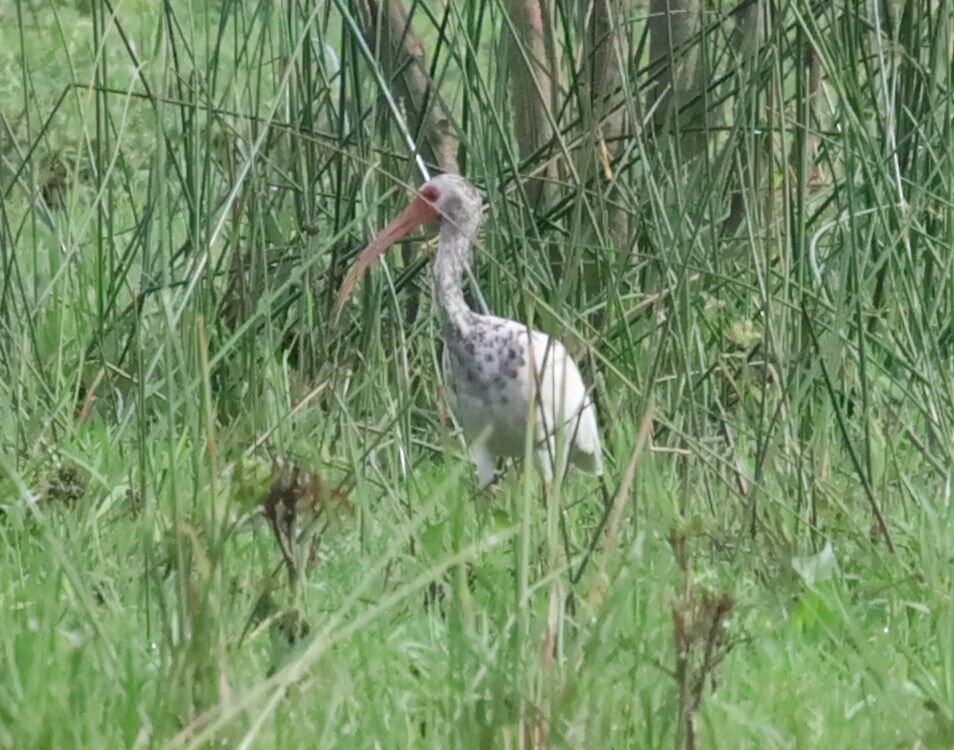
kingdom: Animalia
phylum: Chordata
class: Aves
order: Pelecaniformes
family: Threskiornithidae
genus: Eudocimus
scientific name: Eudocimus albus
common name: White ibis
